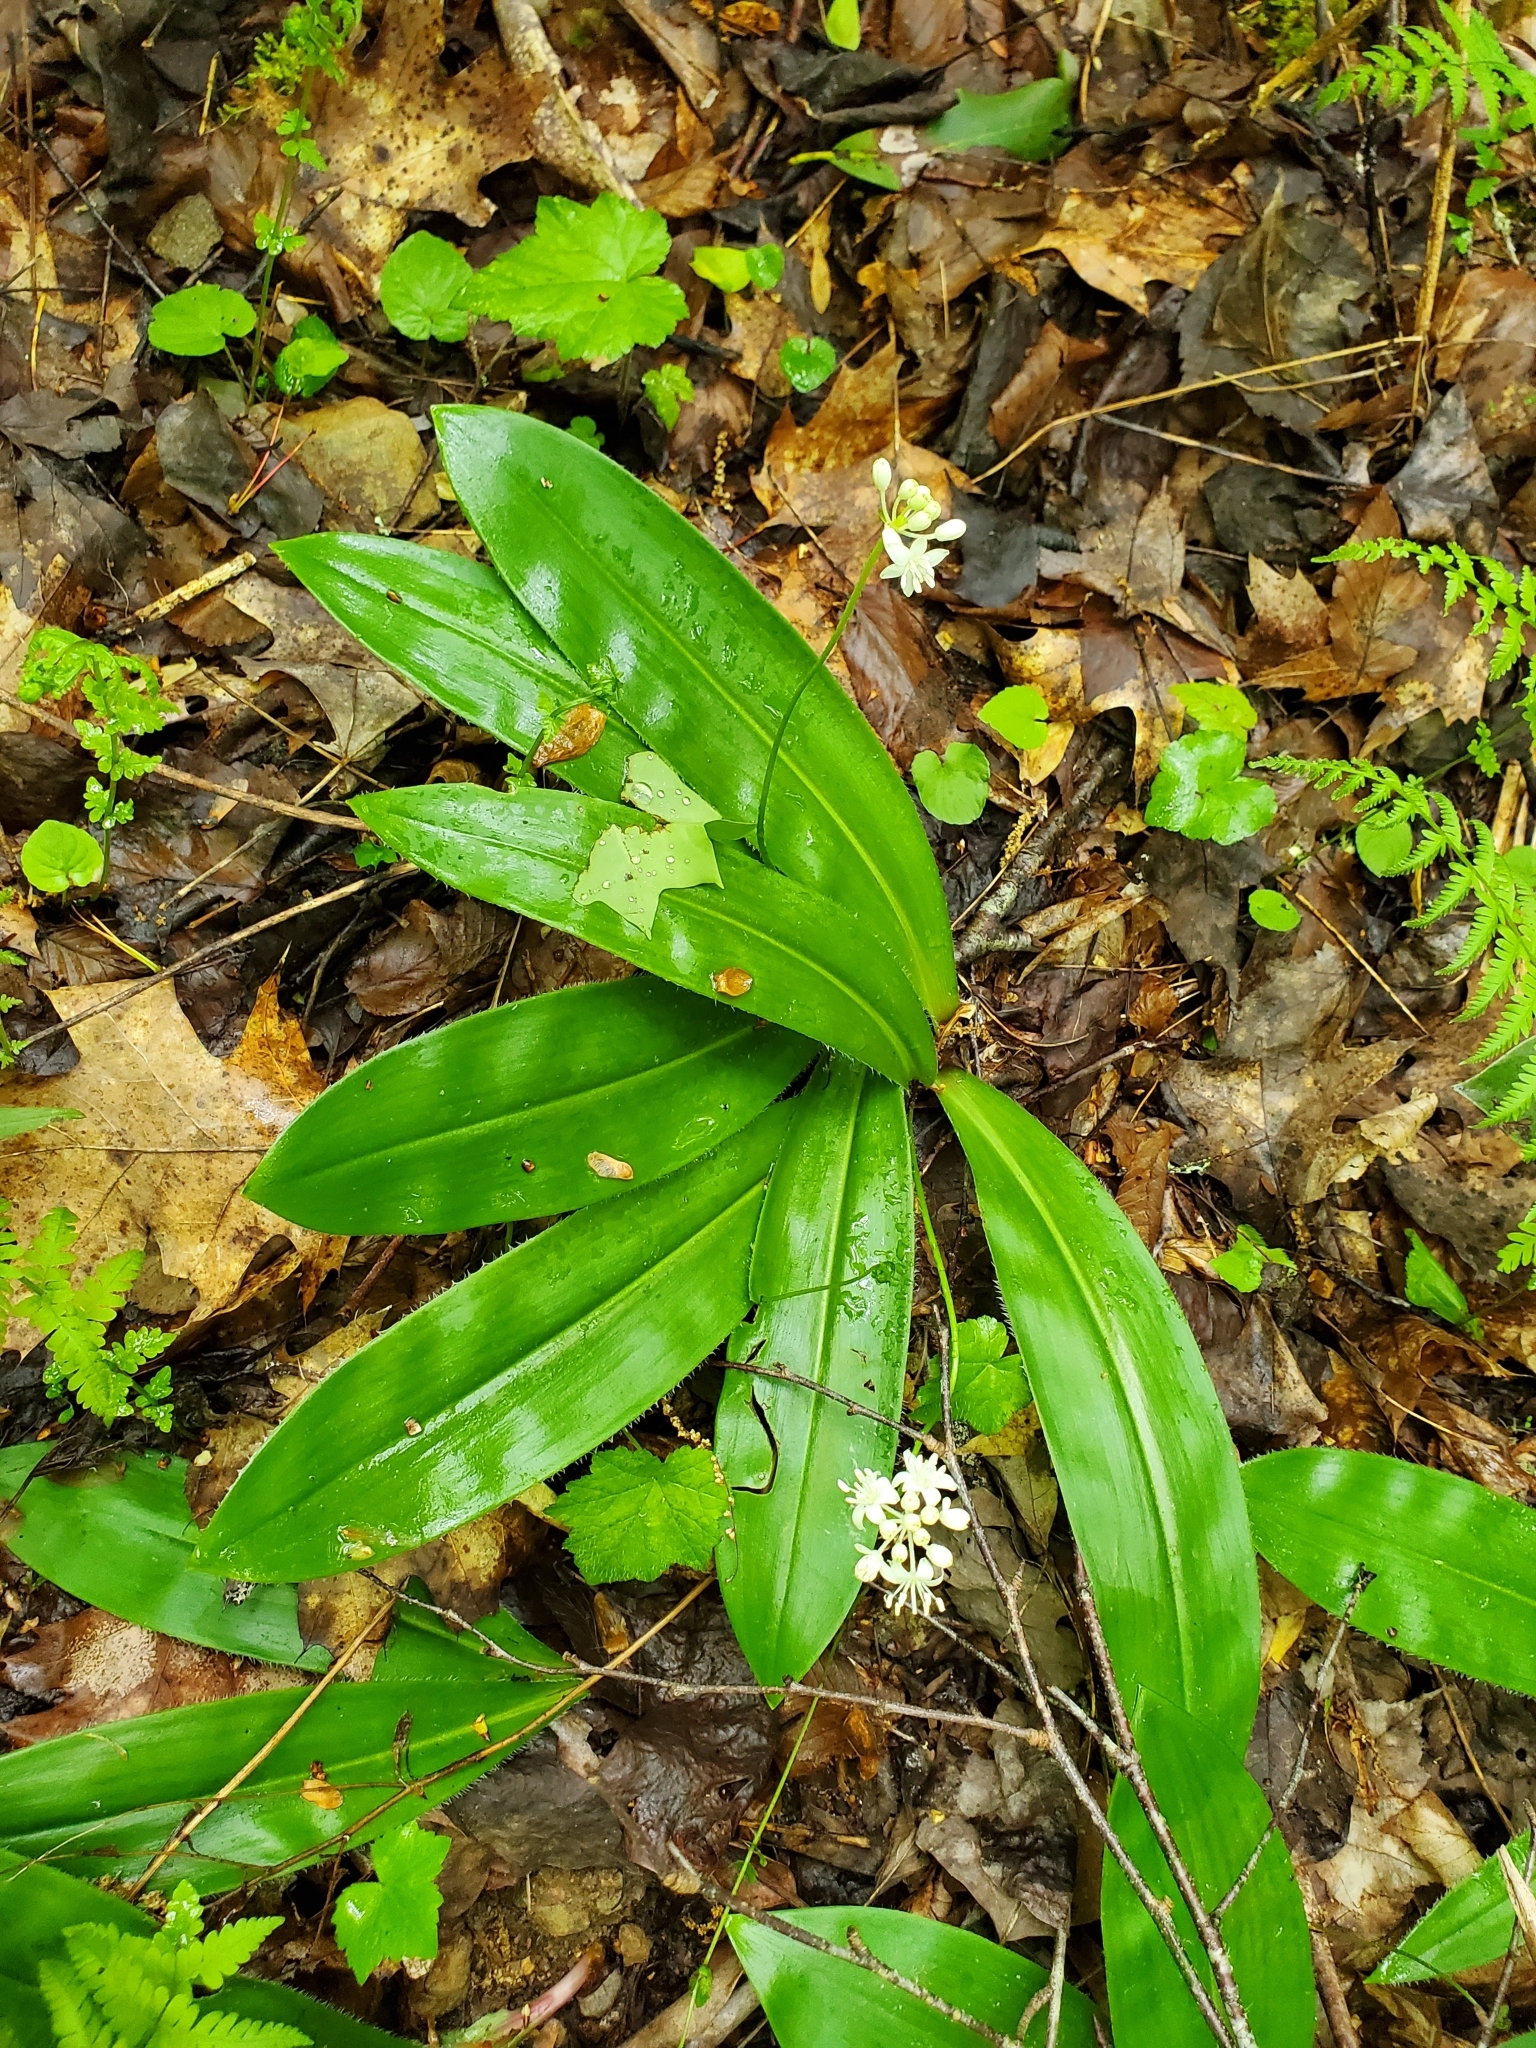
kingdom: Plantae
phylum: Tracheophyta
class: Liliopsida
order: Liliales
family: Liliaceae
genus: Clintonia
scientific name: Clintonia umbellulata
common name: Speckle wood-lily
